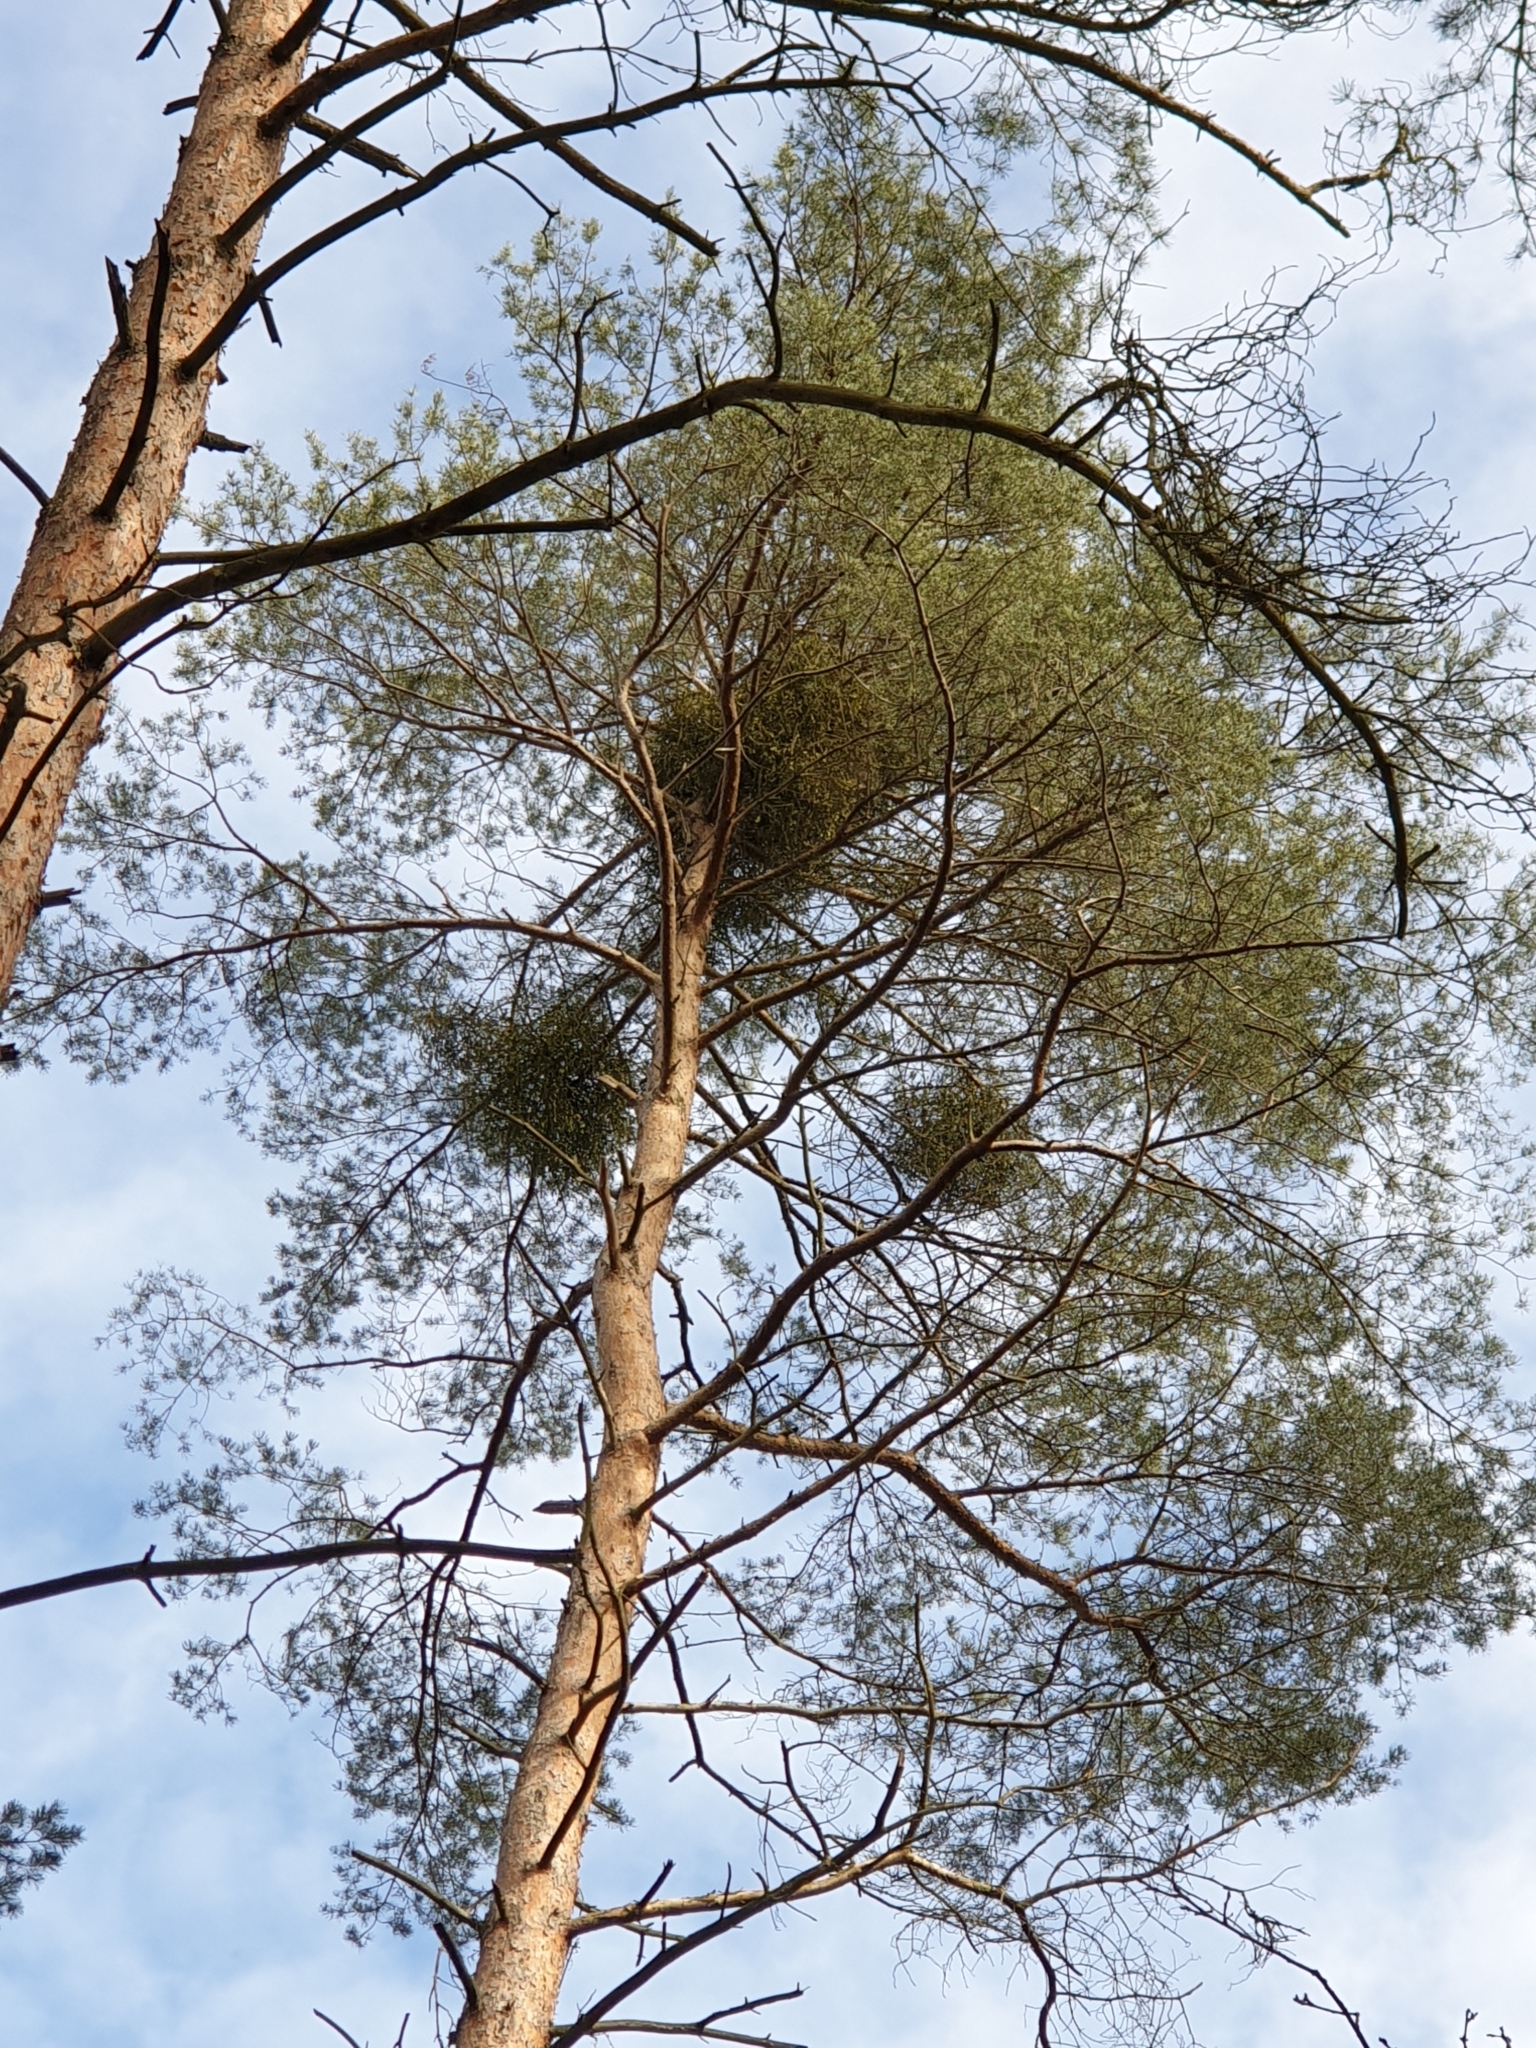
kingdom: Plantae
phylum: Tracheophyta
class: Magnoliopsida
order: Santalales
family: Viscaceae
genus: Viscum
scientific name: Viscum laxum
